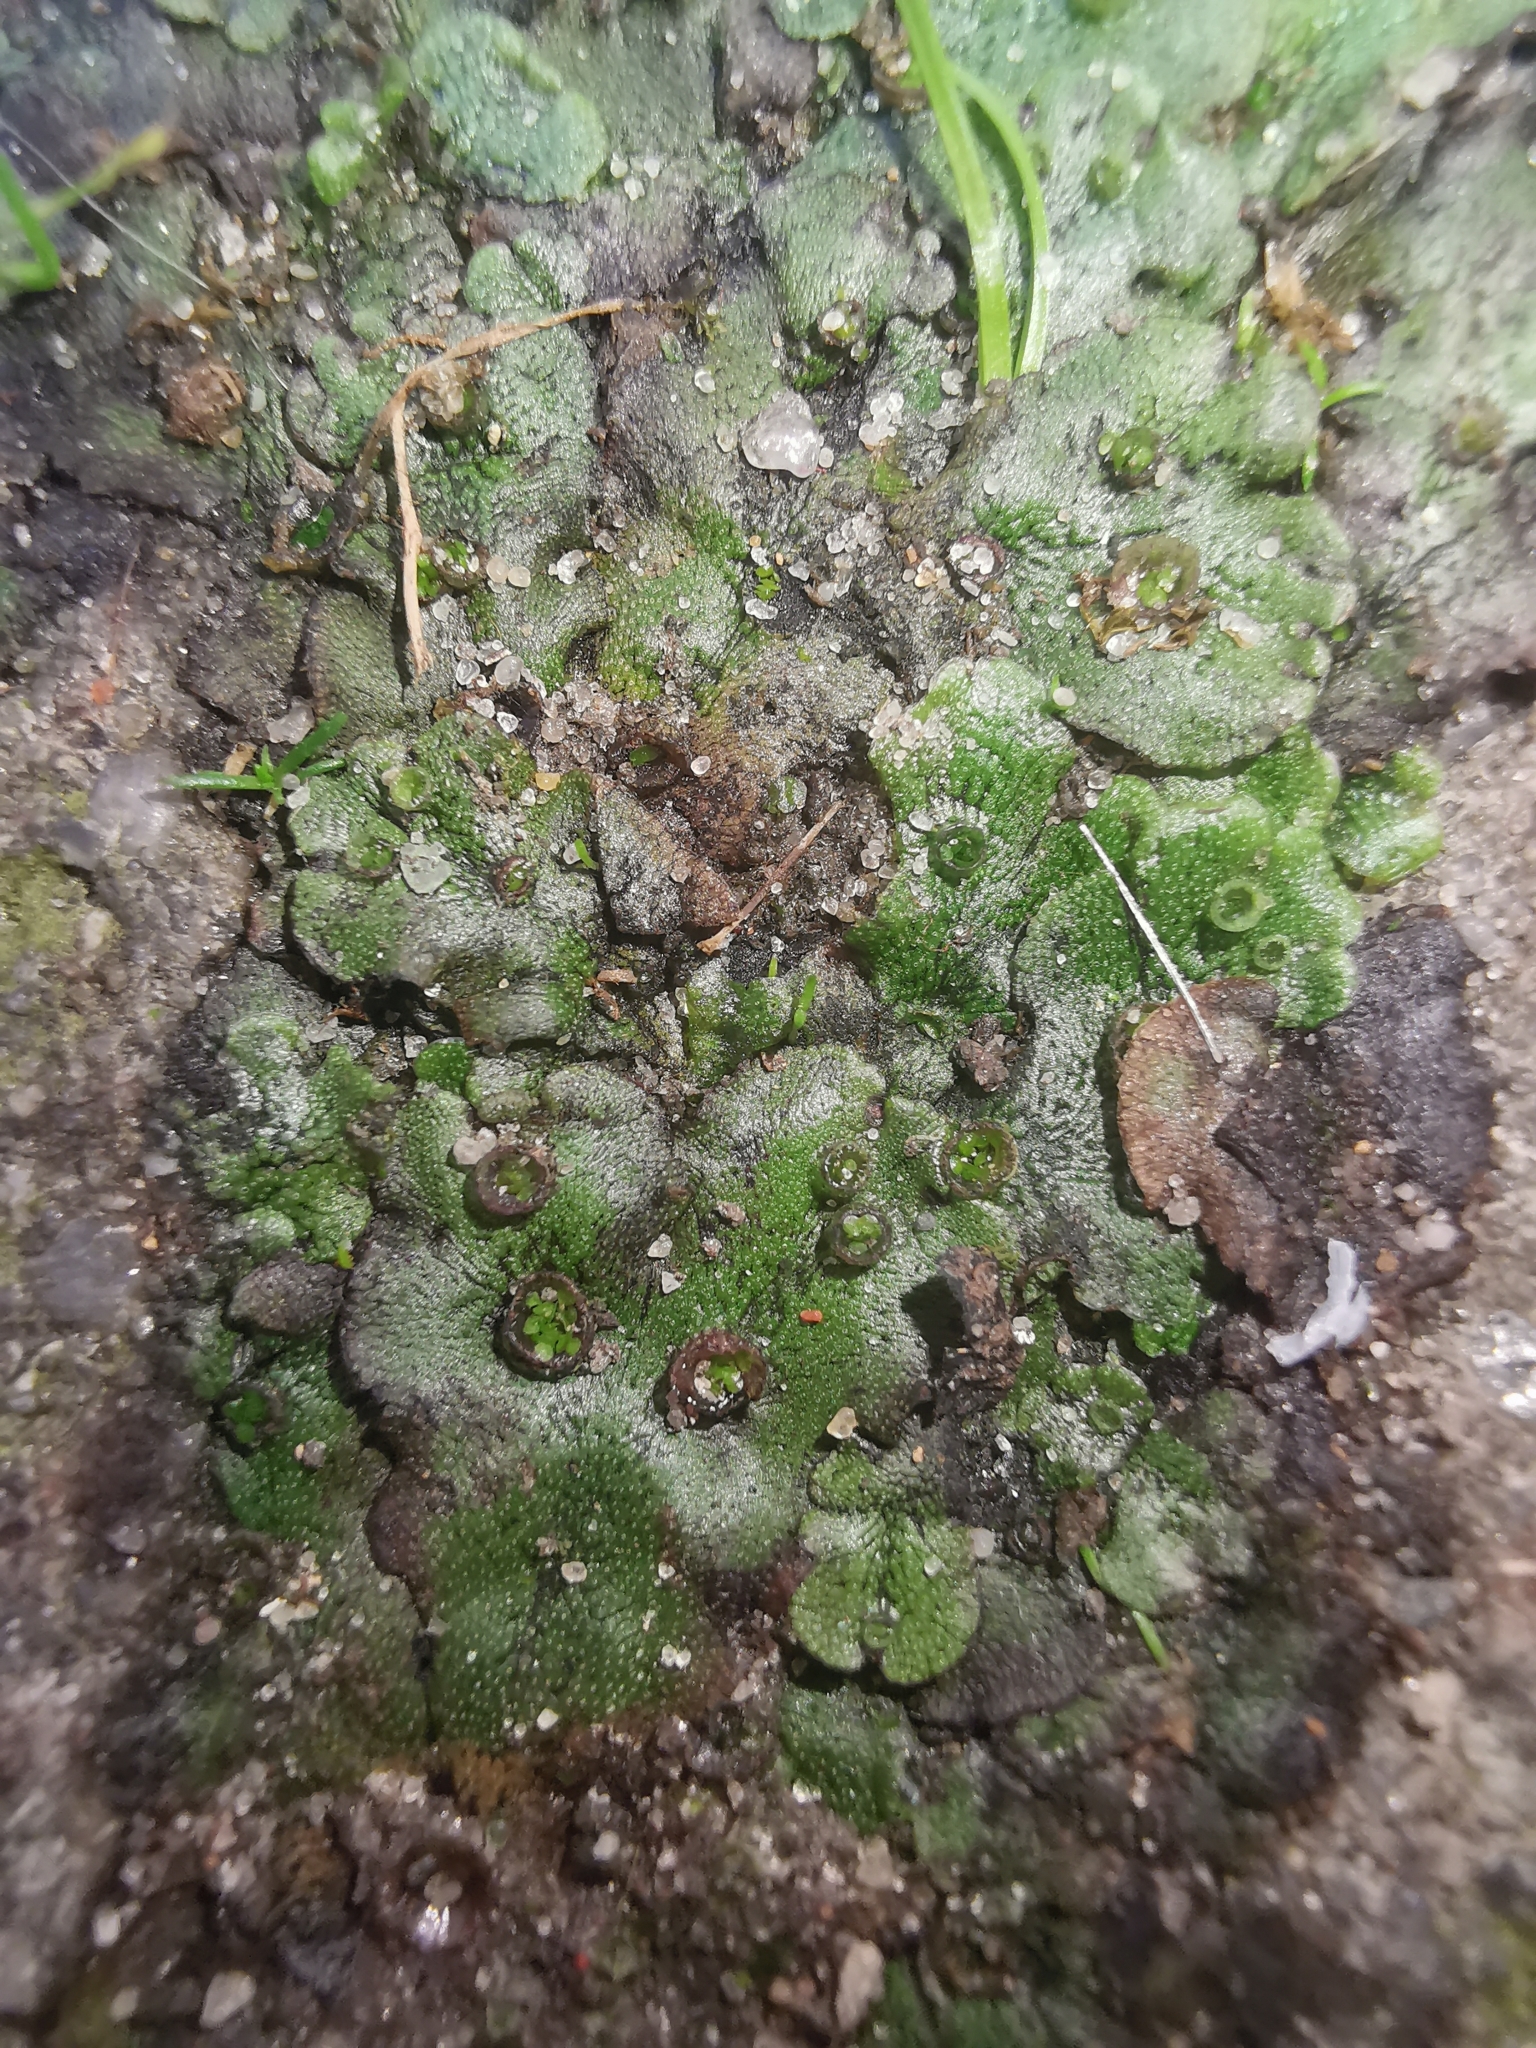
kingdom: Plantae
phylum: Marchantiophyta
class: Marchantiopsida
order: Marchantiales
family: Marchantiaceae
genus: Marchantia
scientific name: Marchantia polymorpha
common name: Common liverwort
